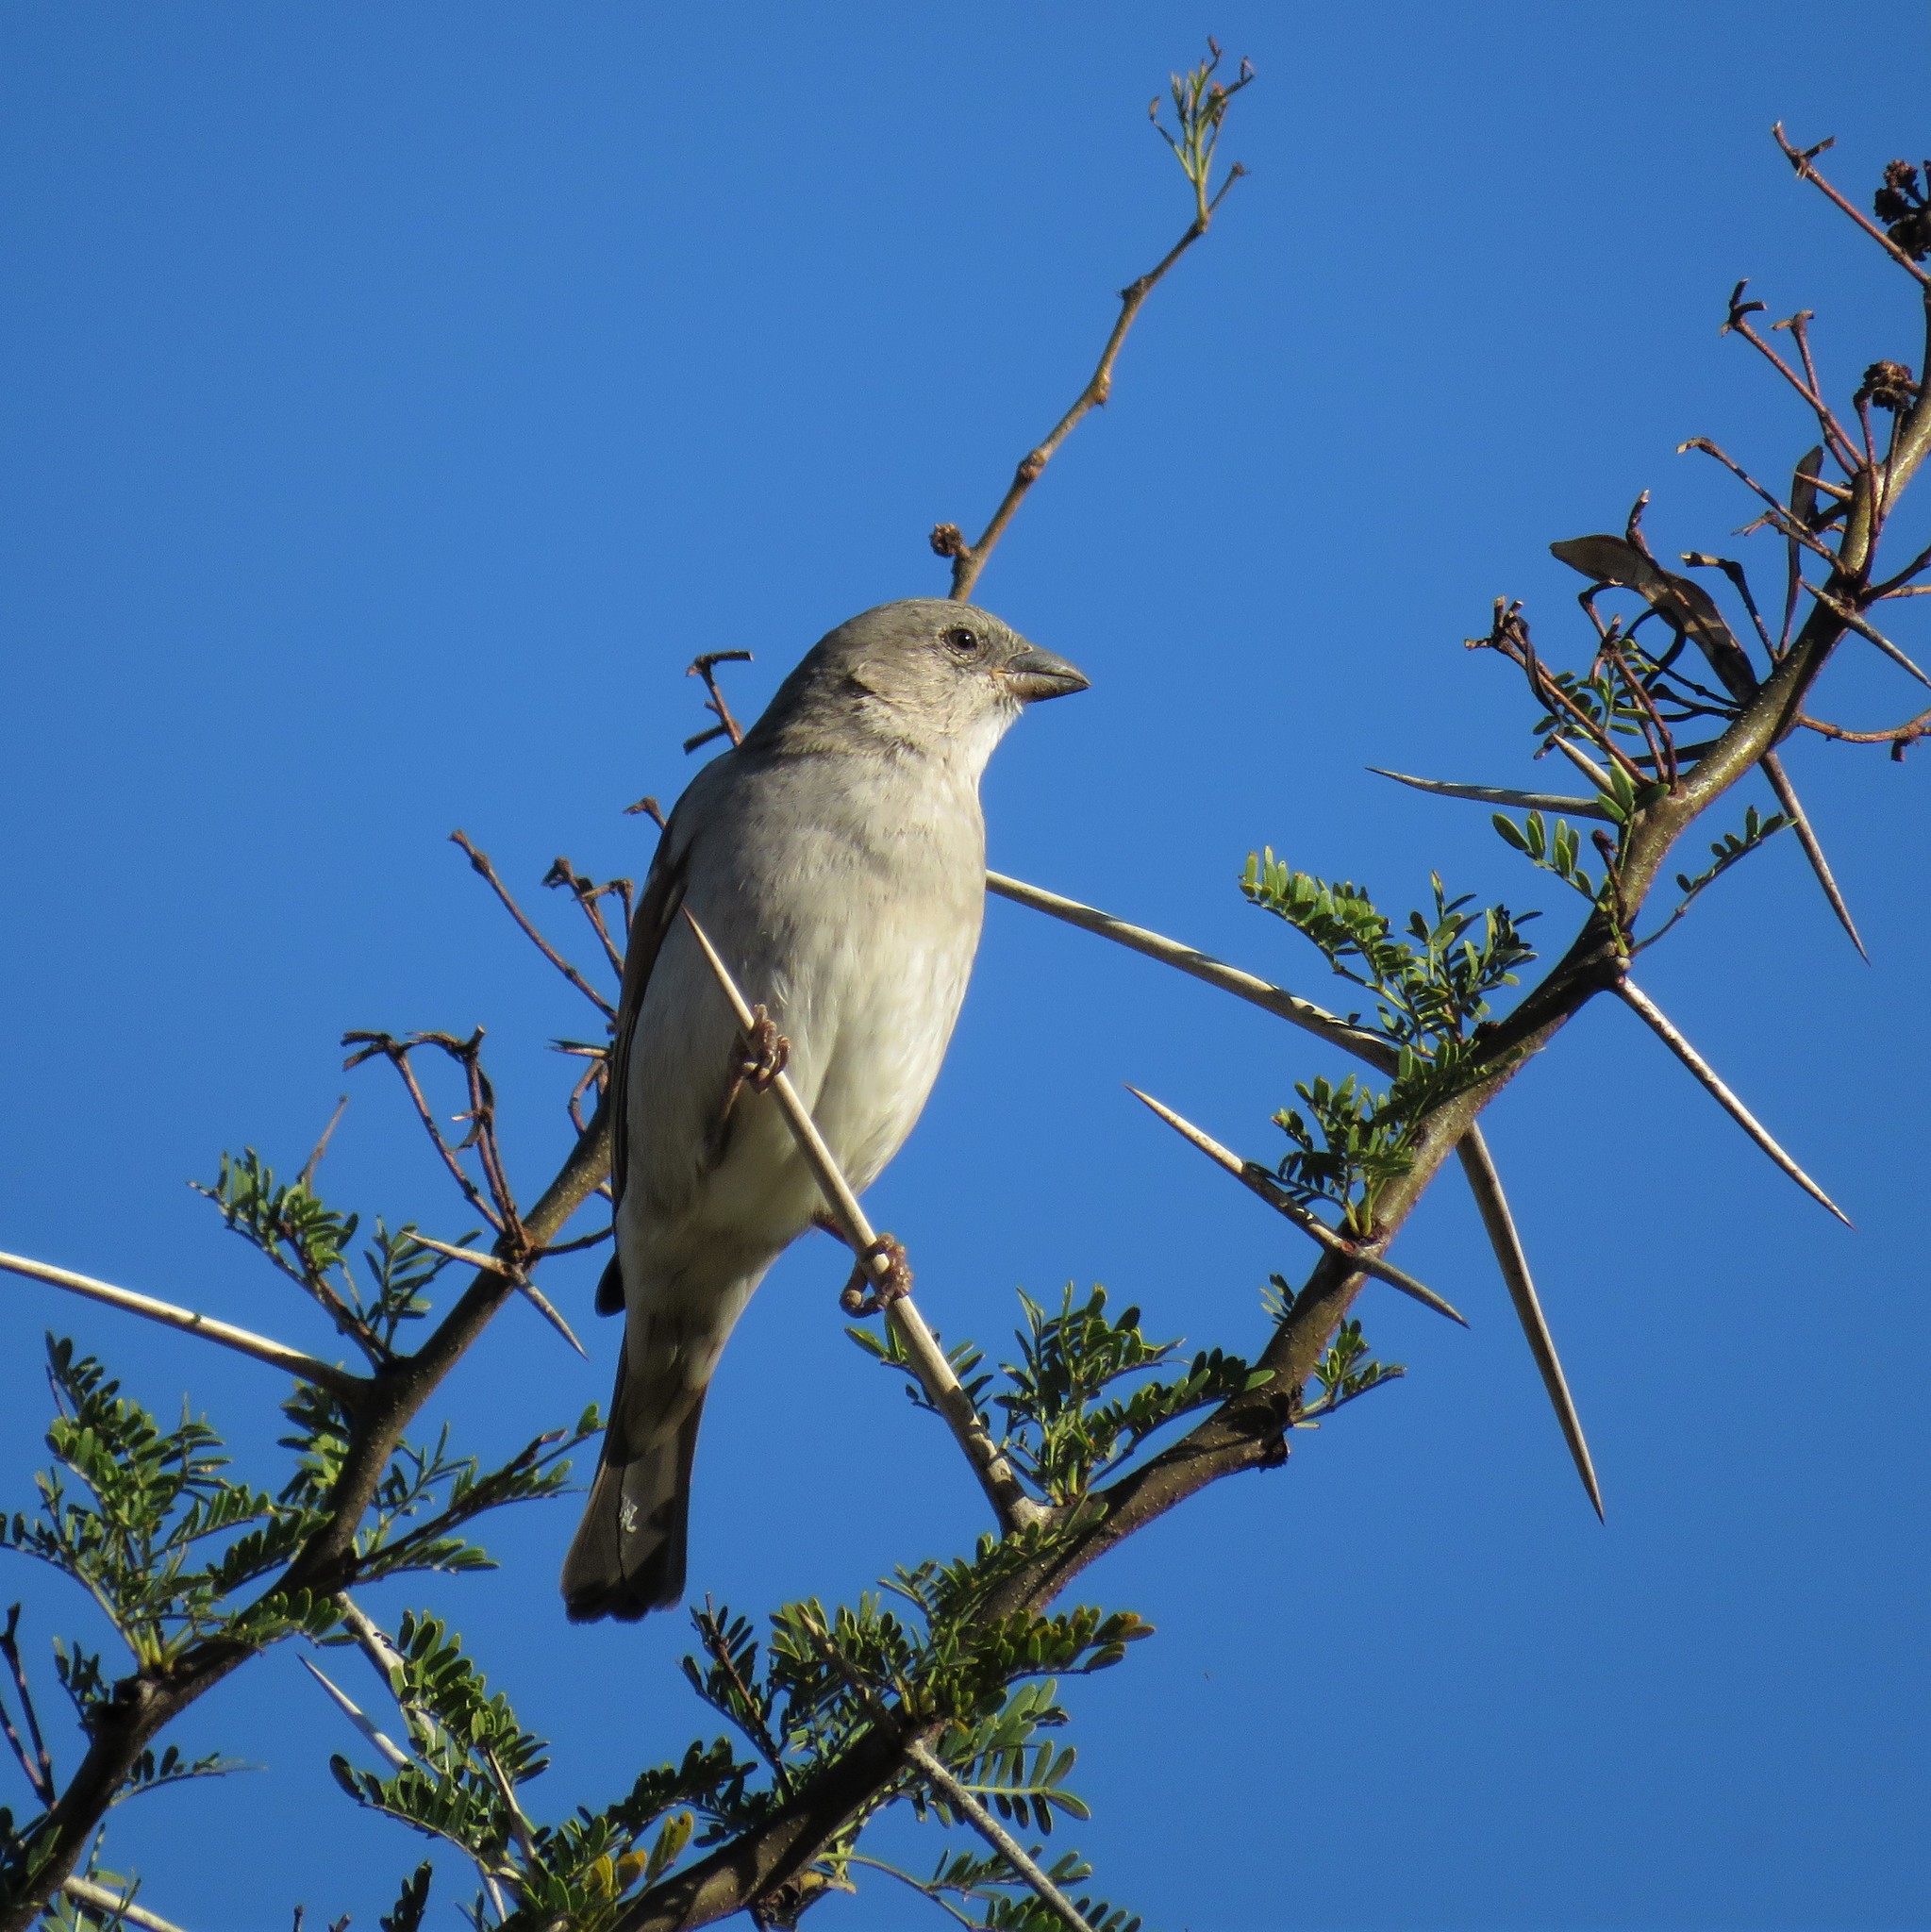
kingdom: Animalia
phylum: Chordata
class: Aves
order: Passeriformes
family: Passeridae
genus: Passer
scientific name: Passer diffusus
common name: Southern grey-headed sparrow
